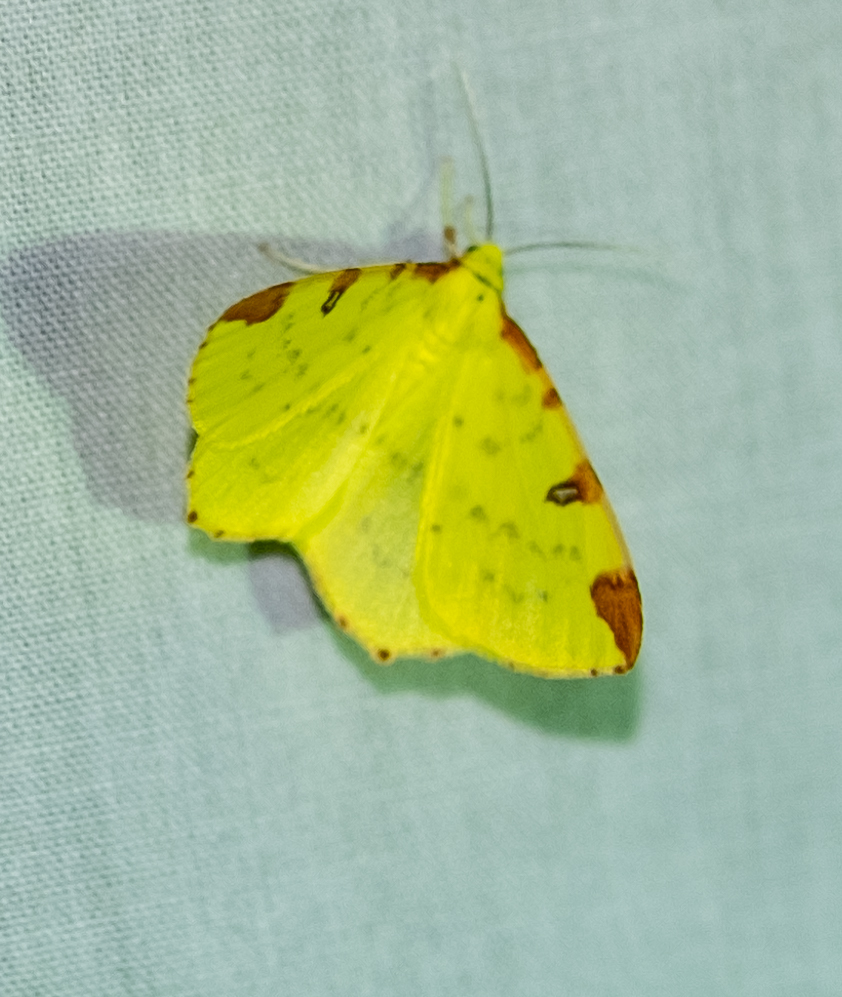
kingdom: Animalia
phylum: Arthropoda
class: Insecta
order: Lepidoptera
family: Geometridae
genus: Opisthograptis
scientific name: Opisthograptis luteolata
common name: Brimstone moth
